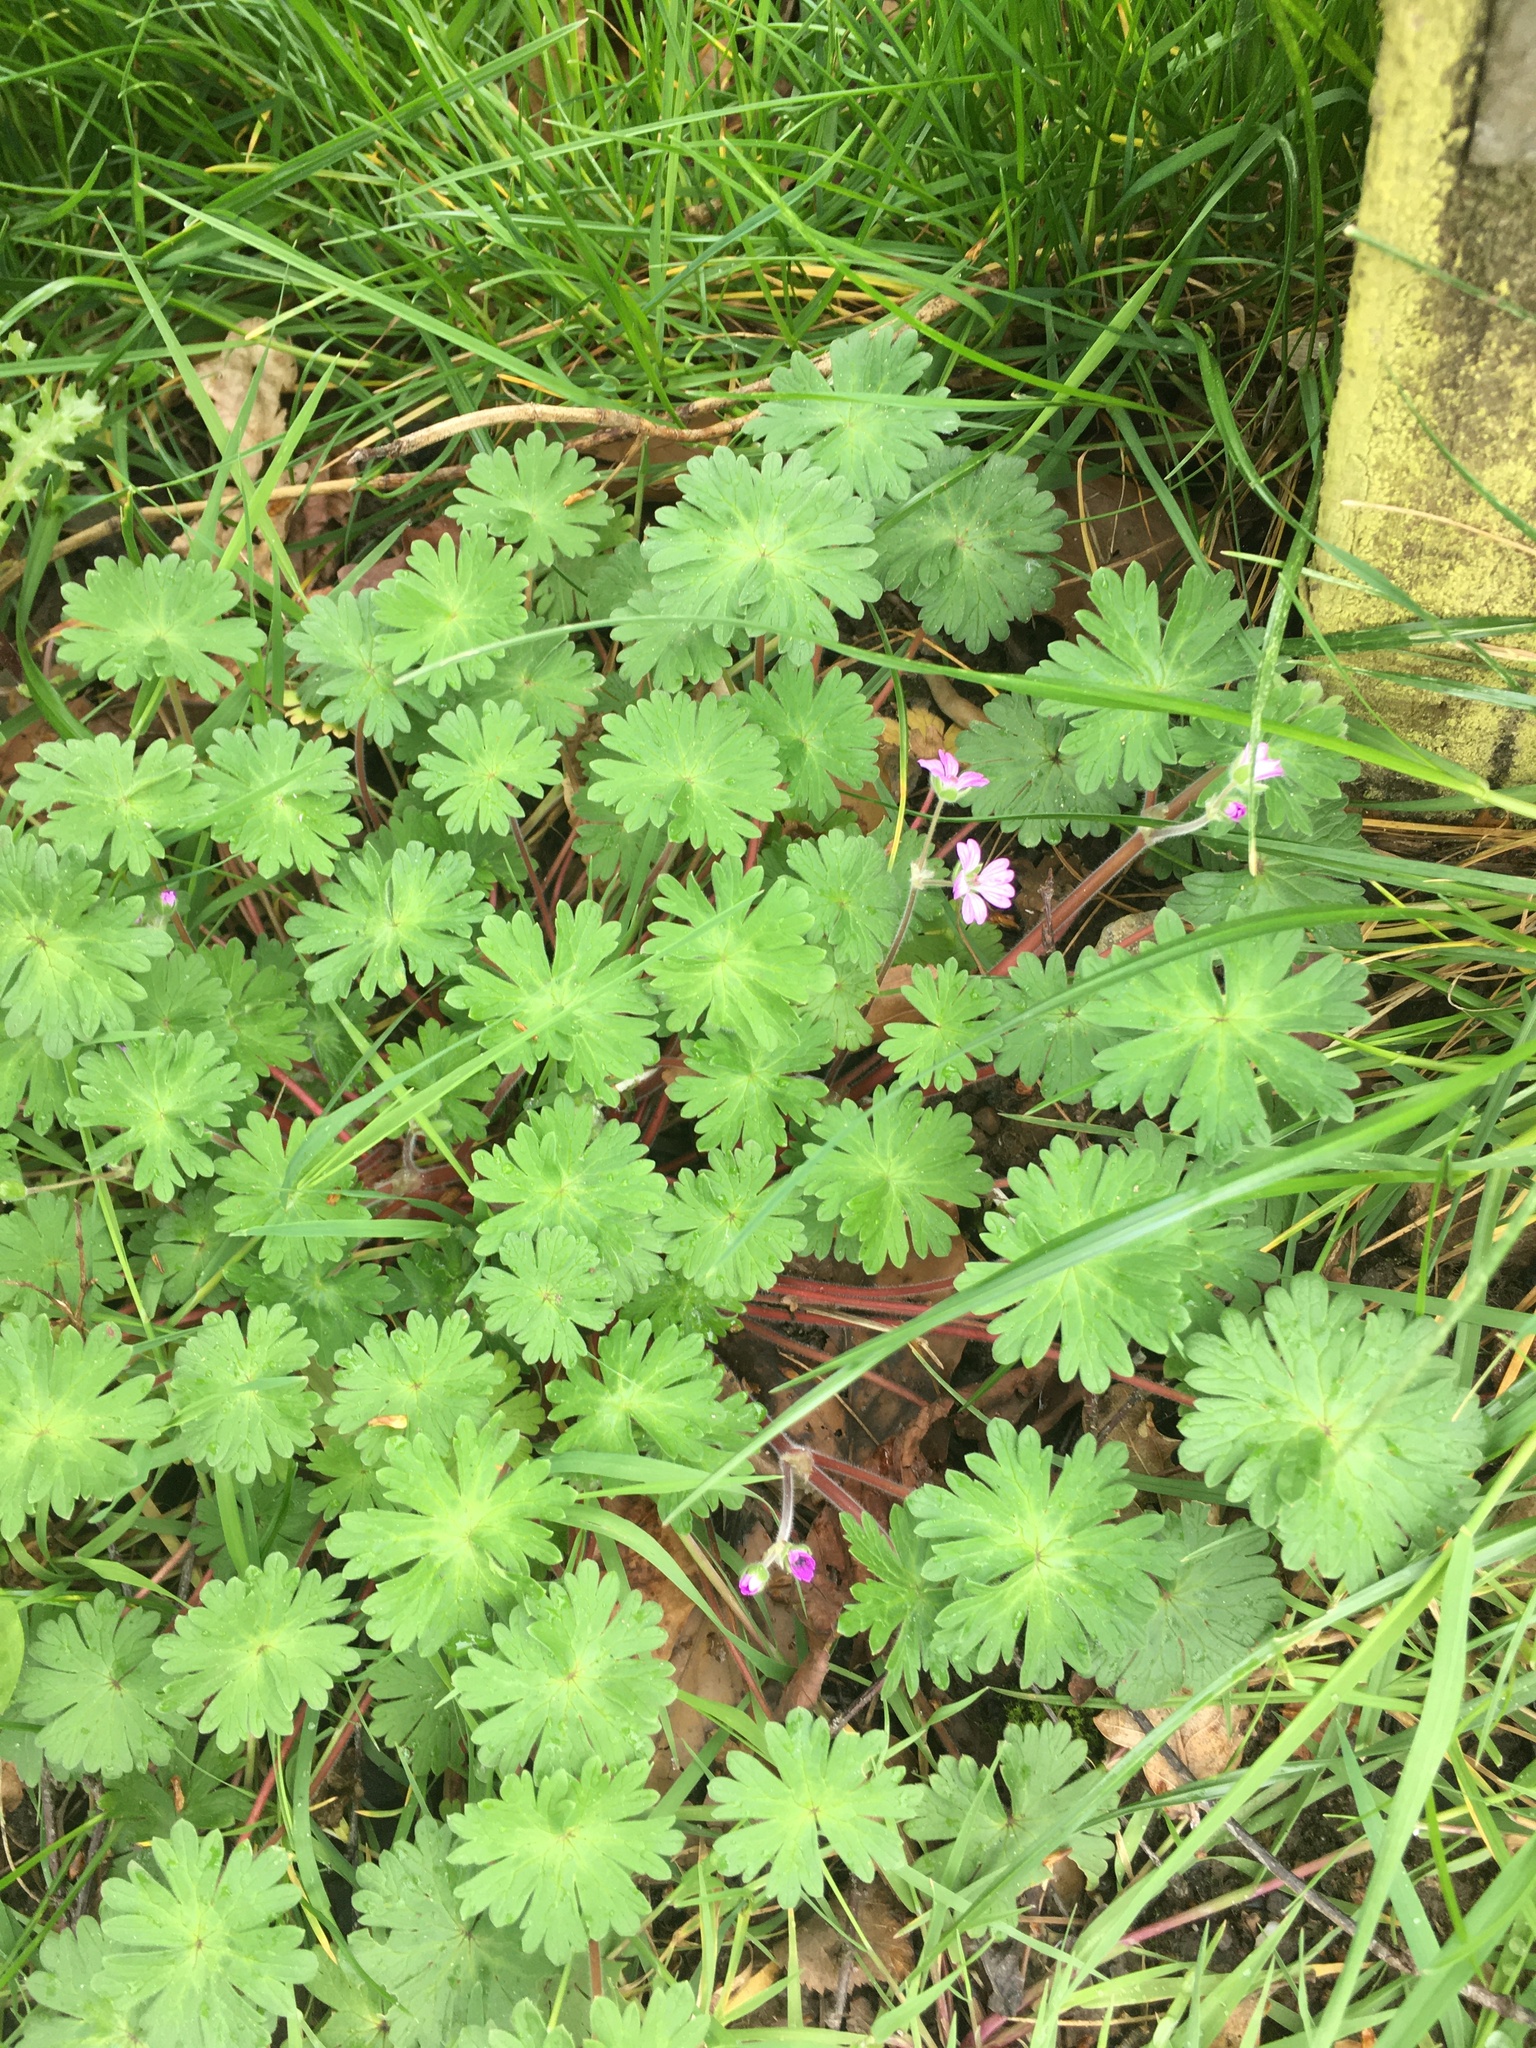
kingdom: Plantae
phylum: Tracheophyta
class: Magnoliopsida
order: Geraniales
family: Geraniaceae
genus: Geranium
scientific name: Geranium molle
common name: Dove's-foot crane's-bill
